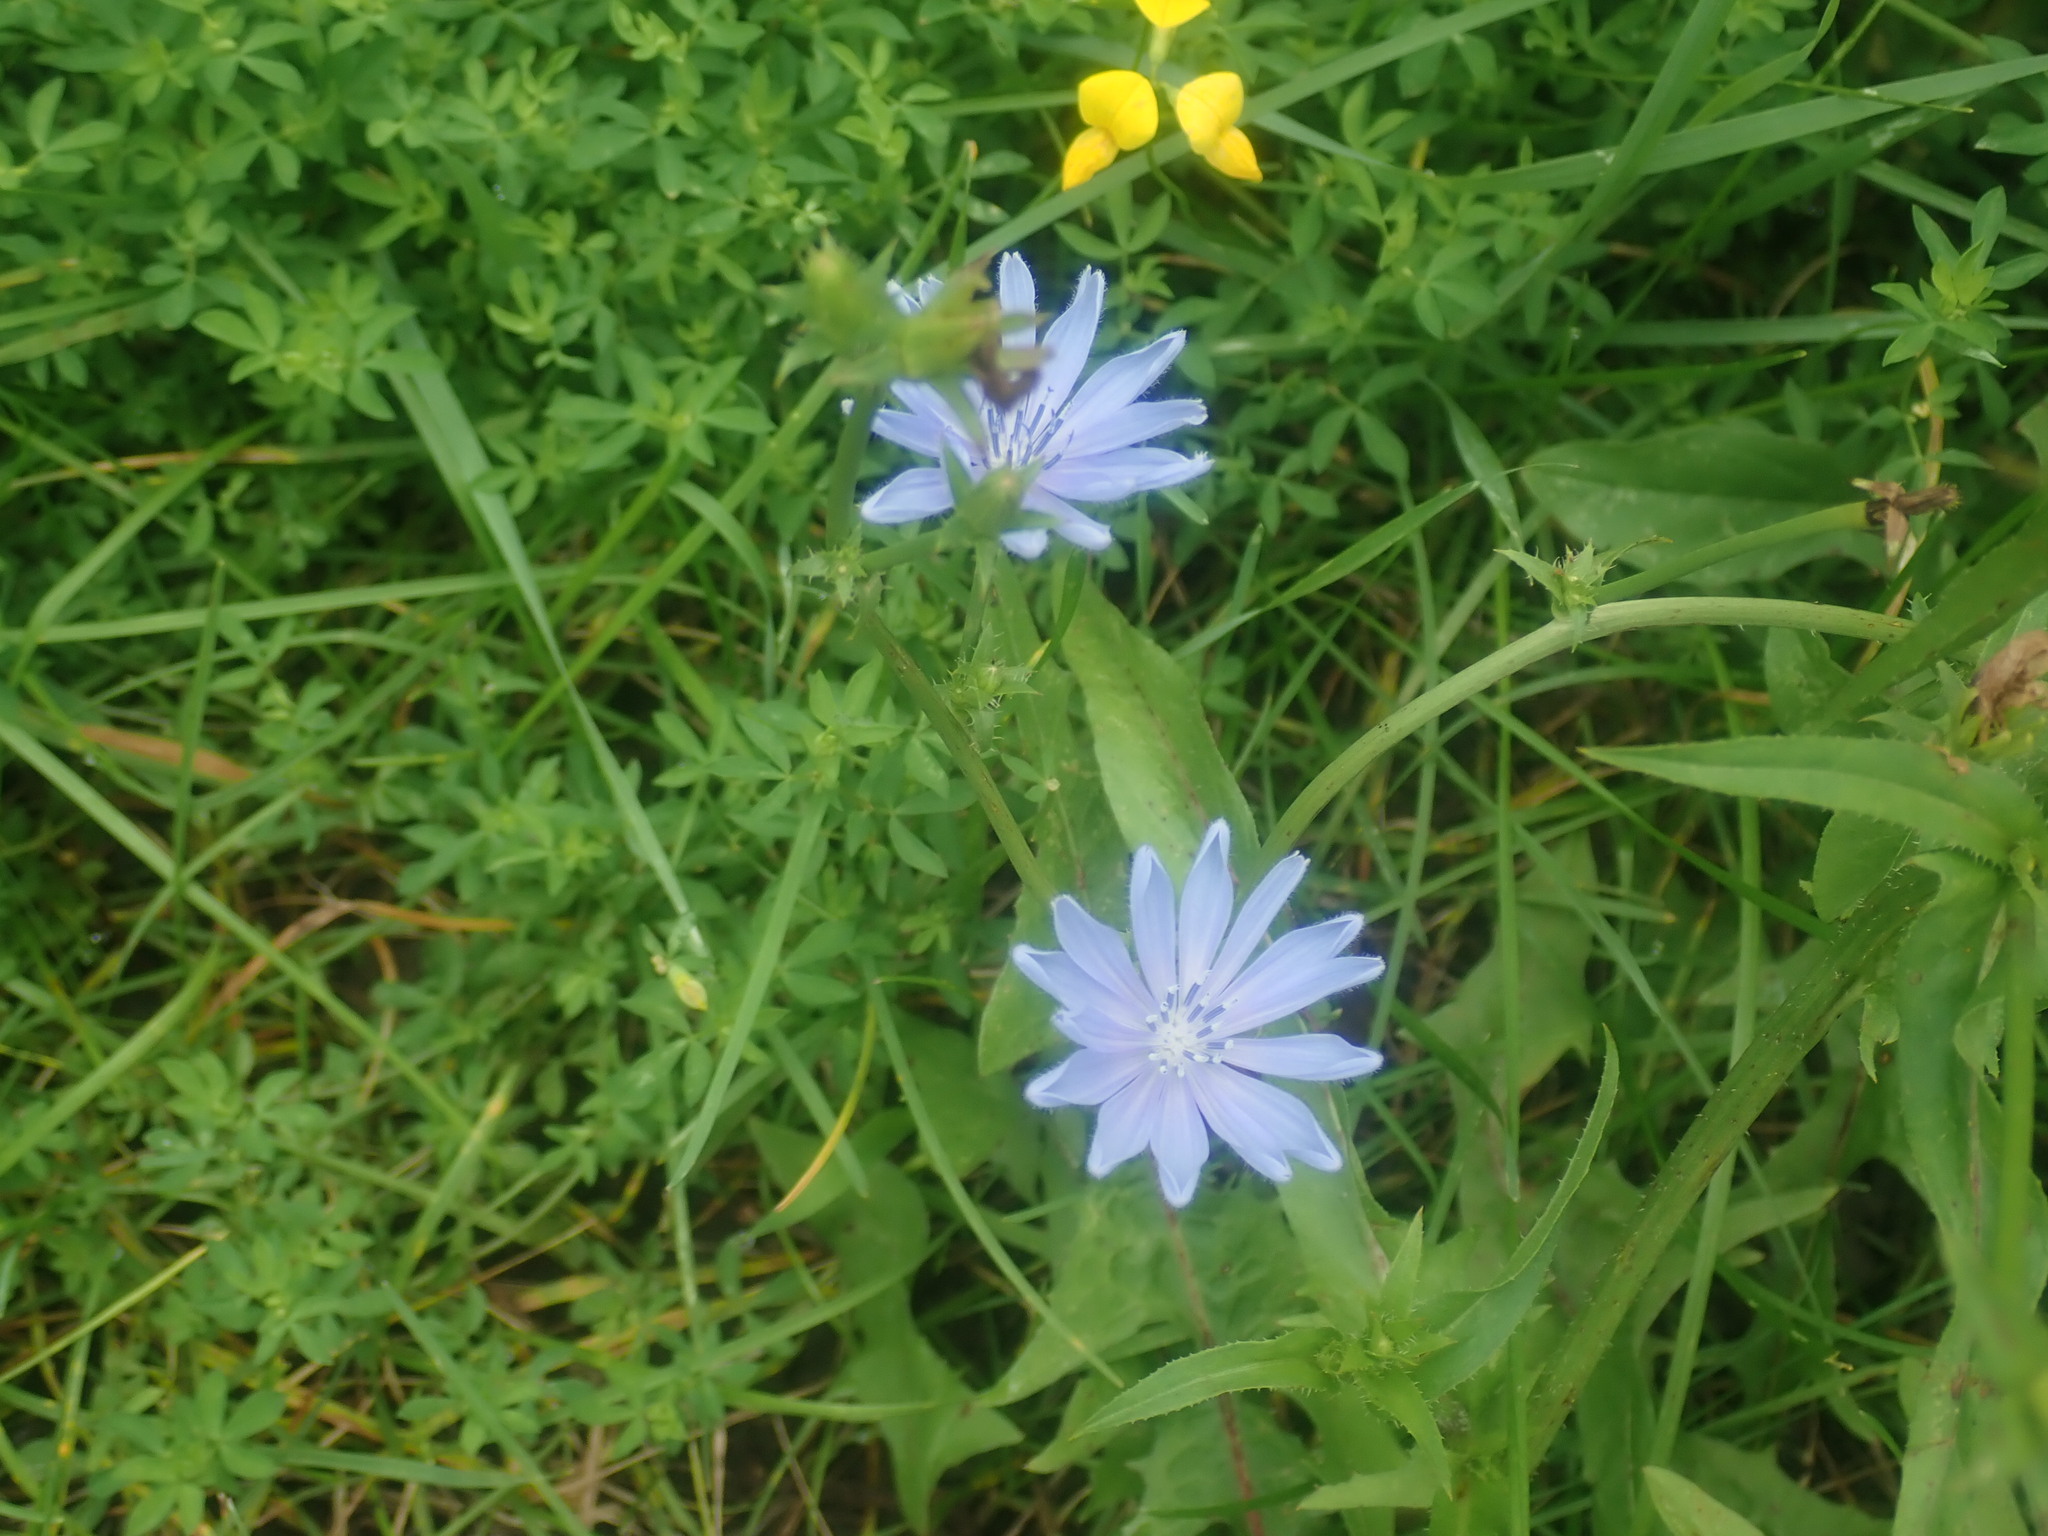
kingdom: Plantae
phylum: Tracheophyta
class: Magnoliopsida
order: Asterales
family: Asteraceae
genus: Cichorium
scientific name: Cichorium intybus
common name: Chicory
